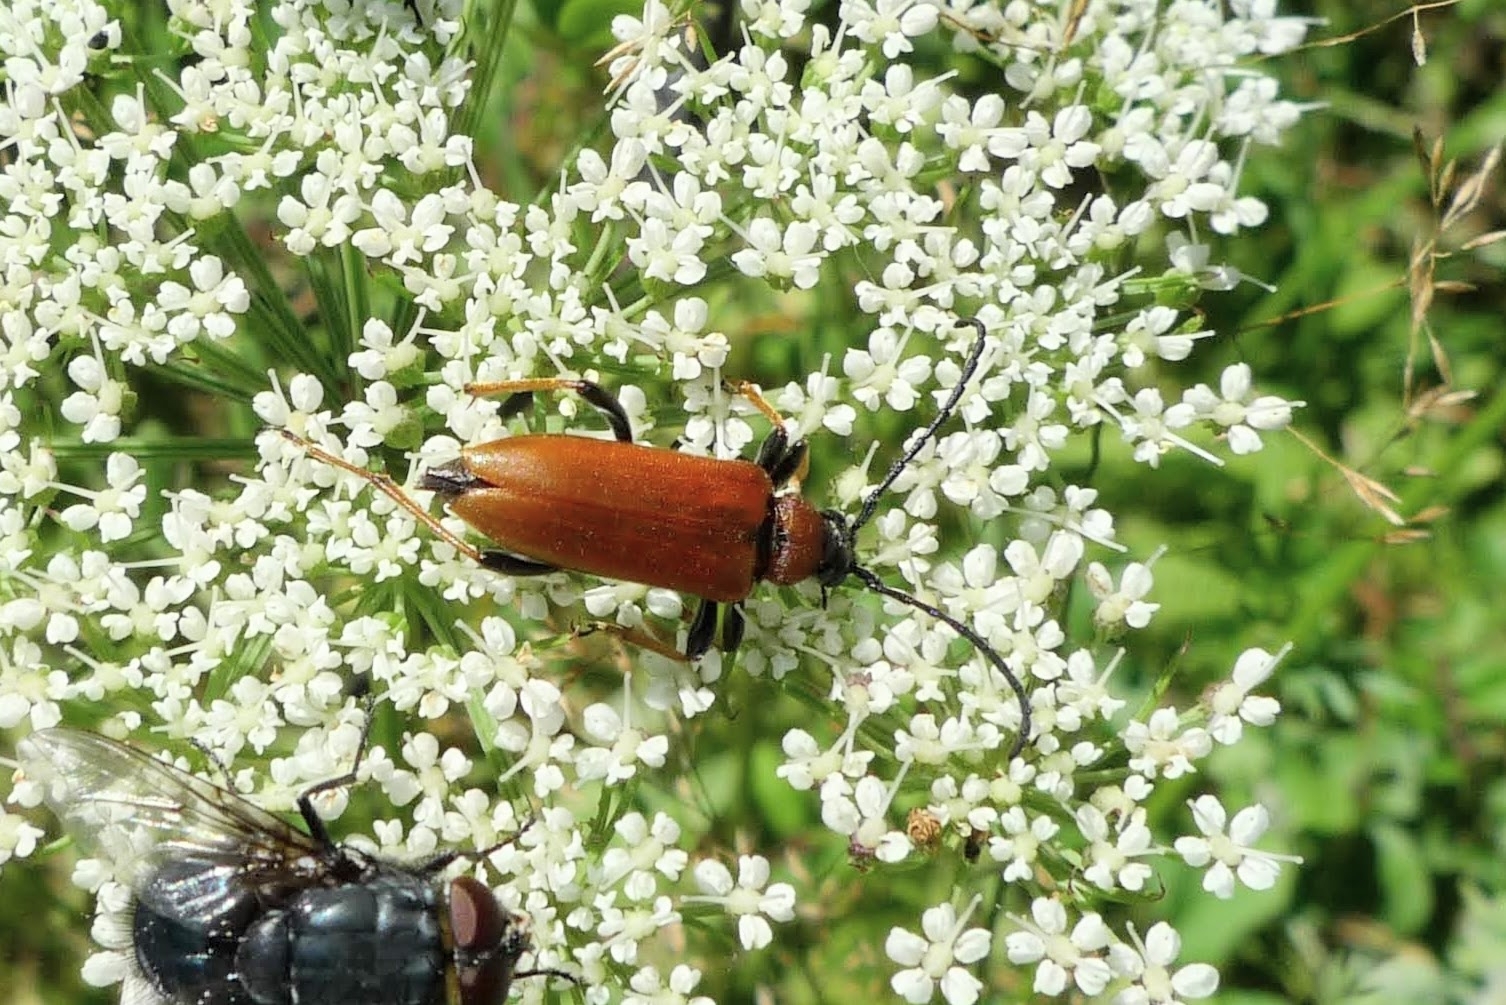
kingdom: Animalia
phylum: Arthropoda
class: Insecta
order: Coleoptera
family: Cerambycidae
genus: Stictoleptura
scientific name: Stictoleptura rubra
